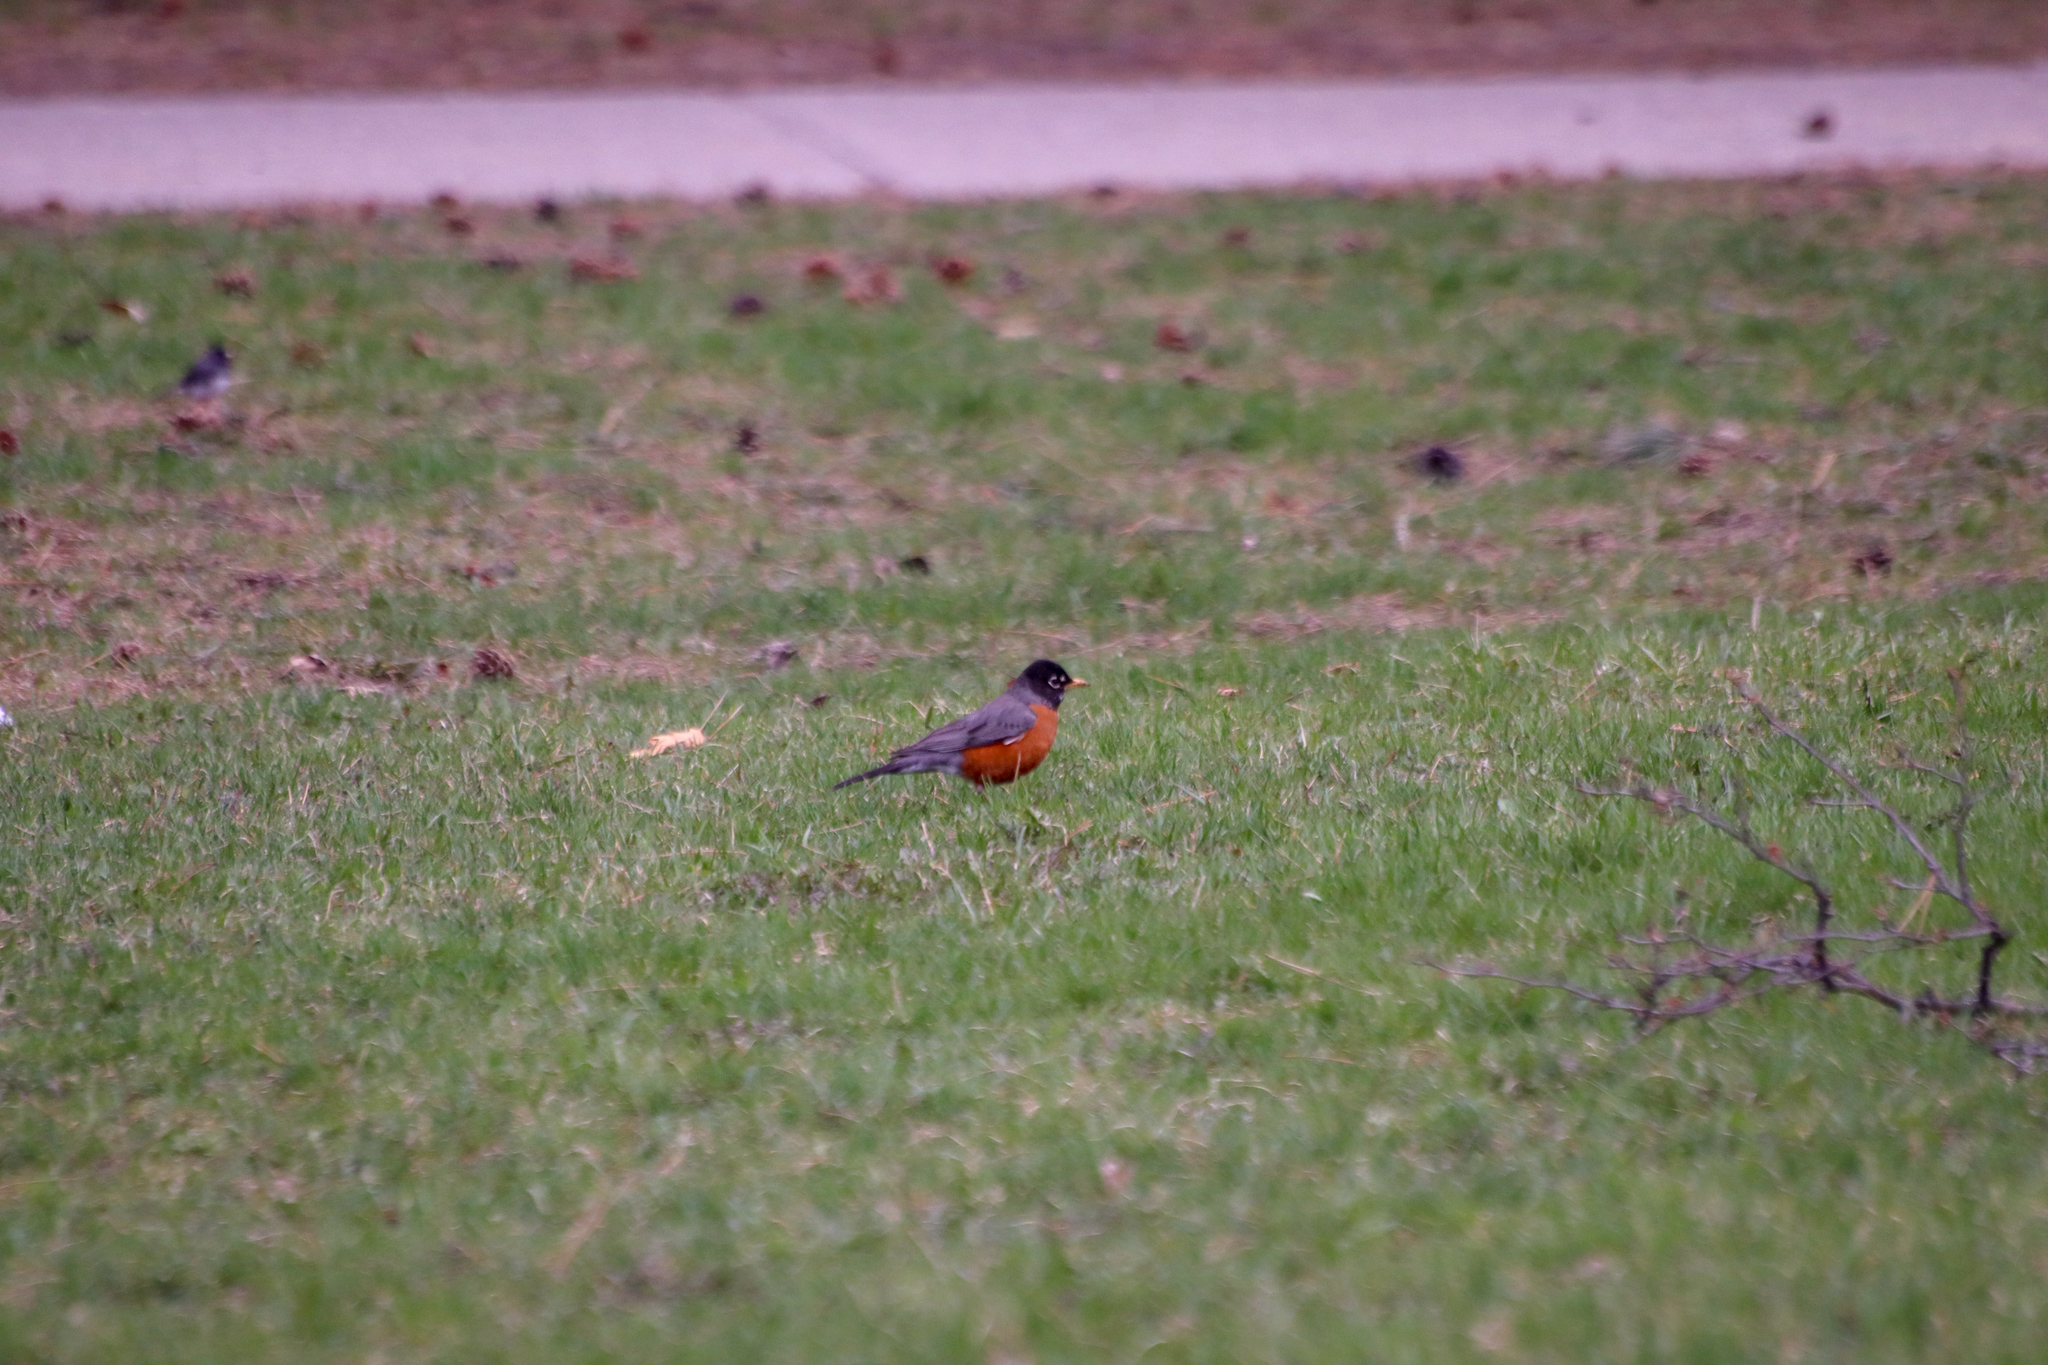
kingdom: Animalia
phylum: Chordata
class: Aves
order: Passeriformes
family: Turdidae
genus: Turdus
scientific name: Turdus migratorius
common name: American robin
